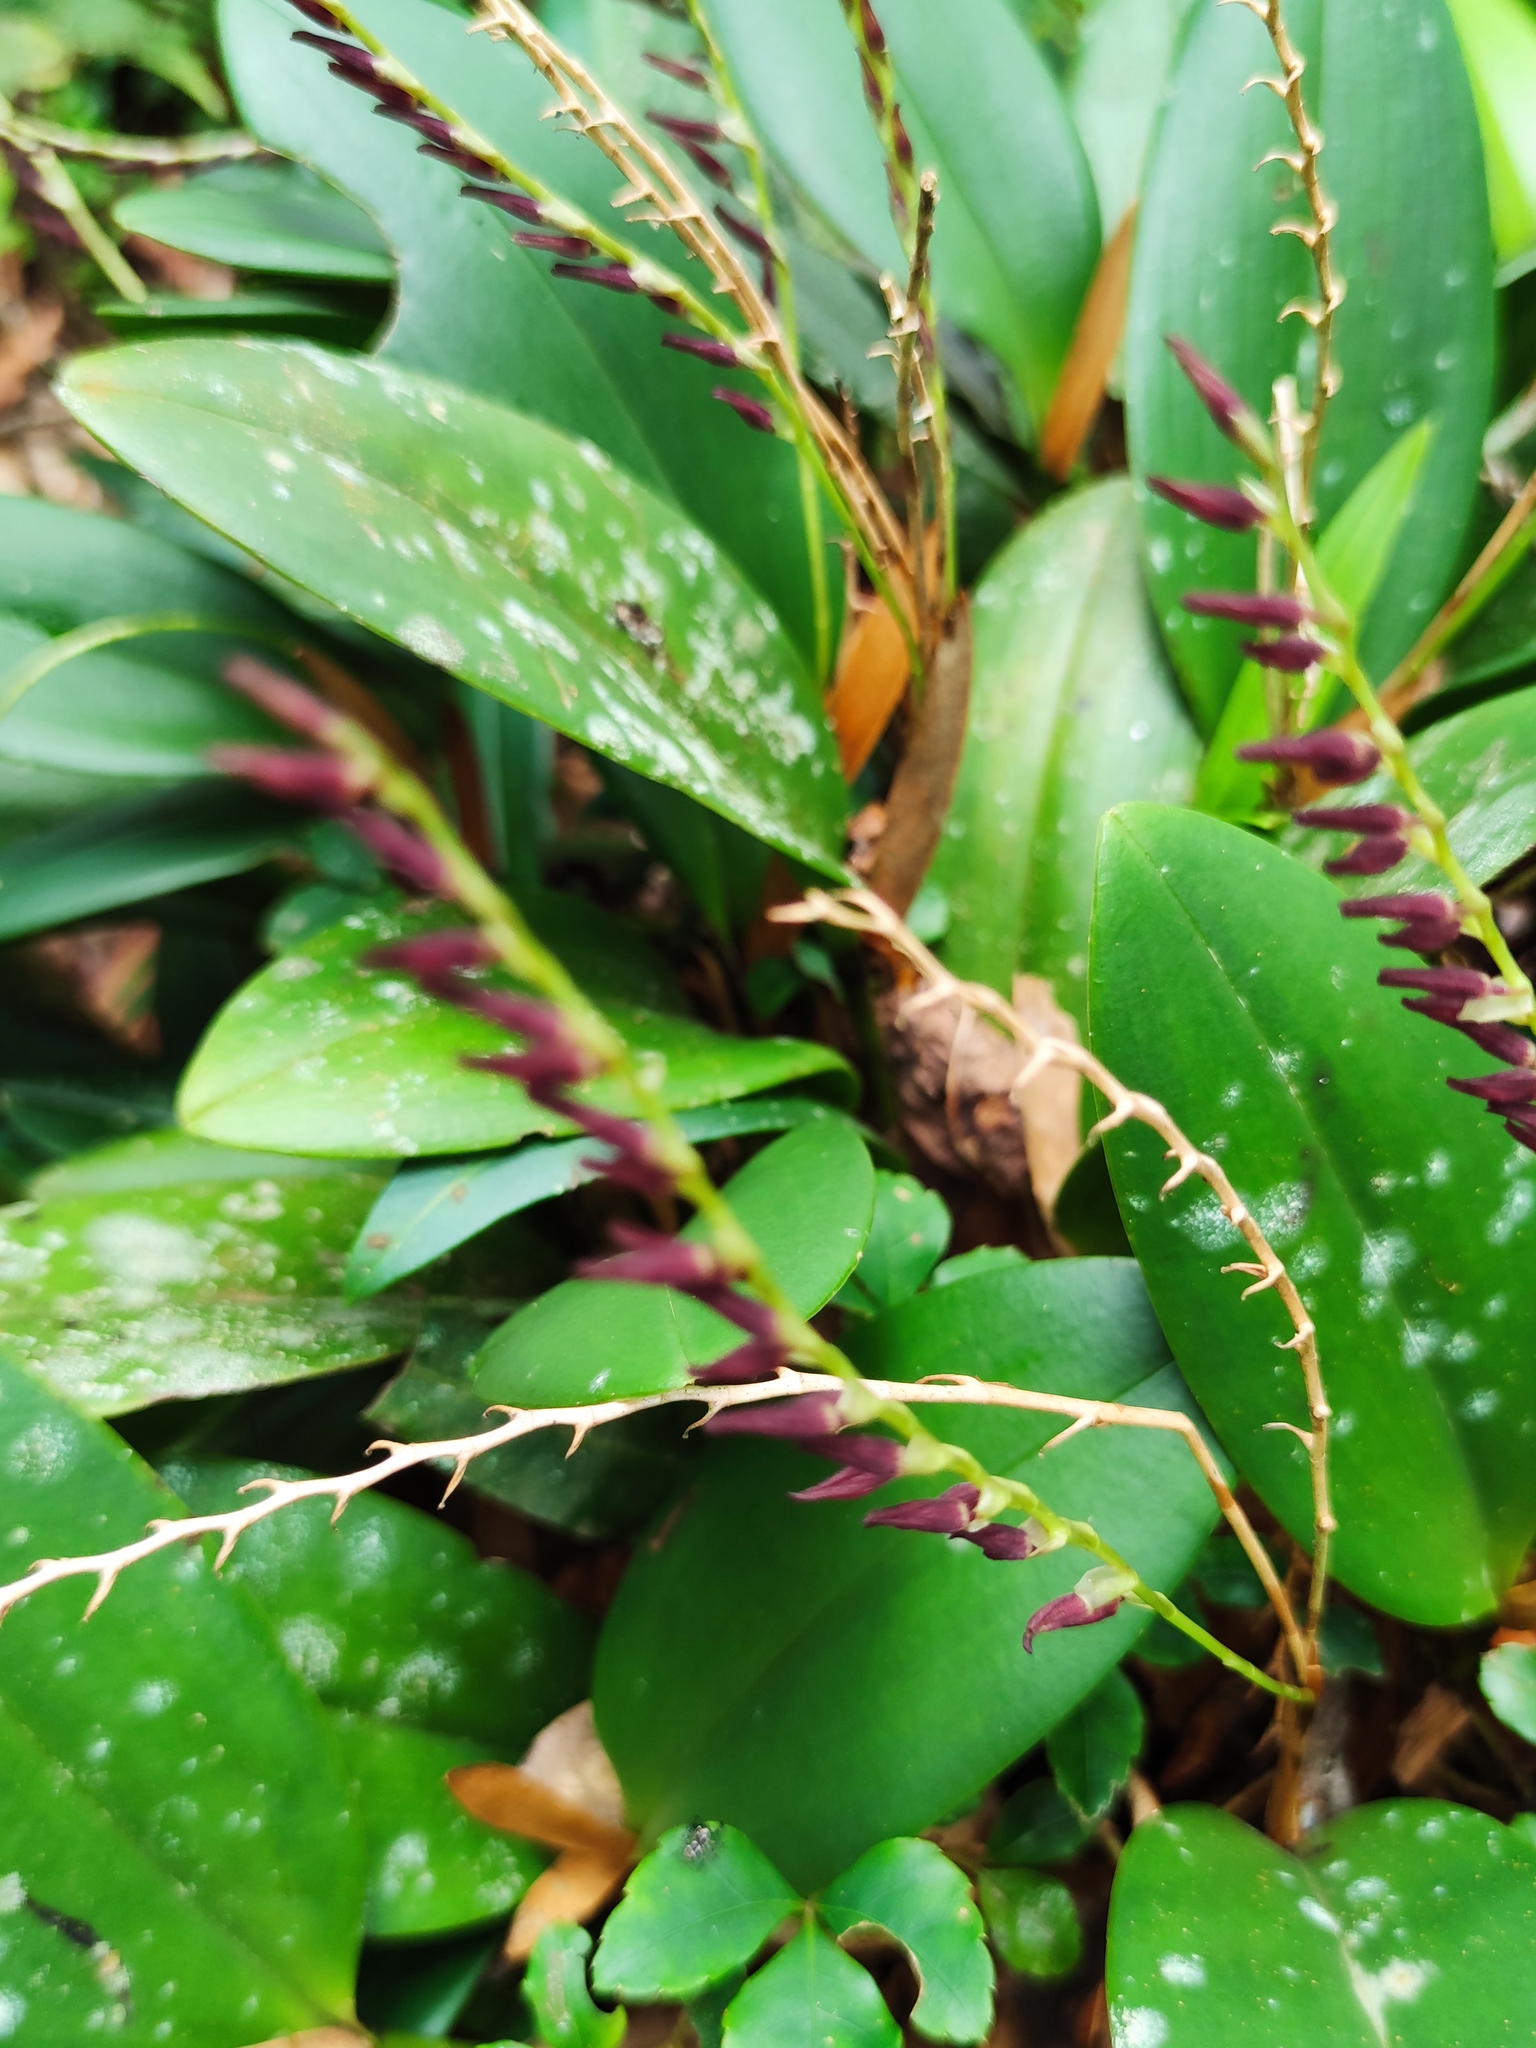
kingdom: Plantae
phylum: Tracheophyta
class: Liliopsida
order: Asparagales
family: Orchidaceae
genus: Stelis
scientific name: Stelis megachlamys
